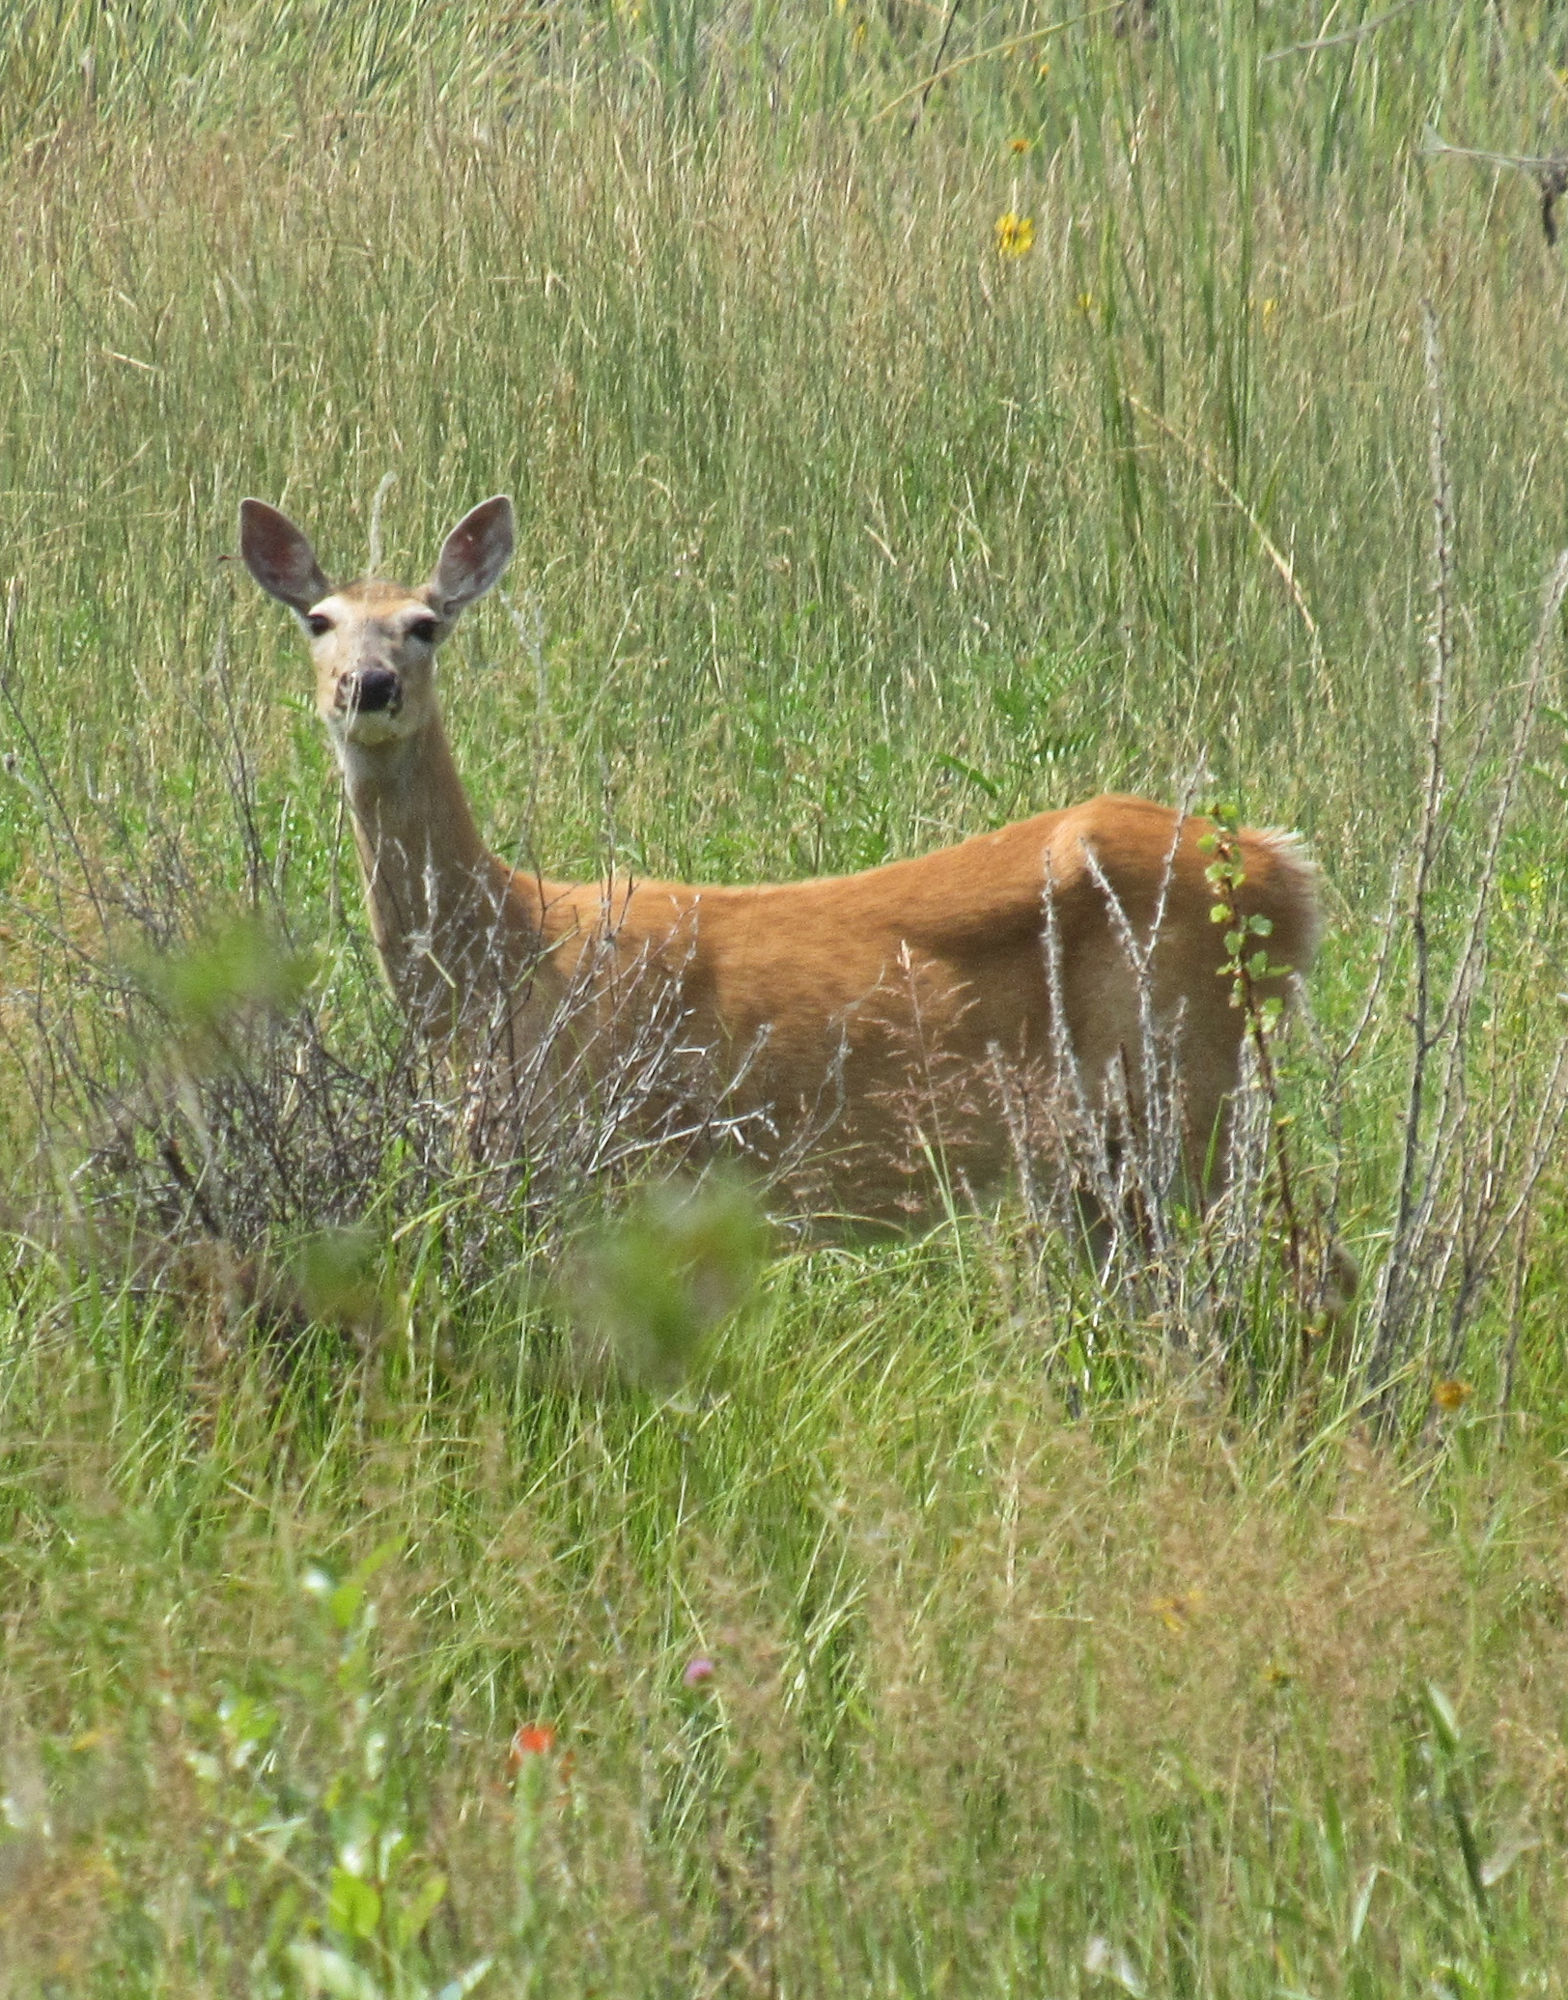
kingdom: Animalia
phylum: Chordata
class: Mammalia
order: Artiodactyla
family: Cervidae
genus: Odocoileus
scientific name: Odocoileus virginianus
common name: White-tailed deer
